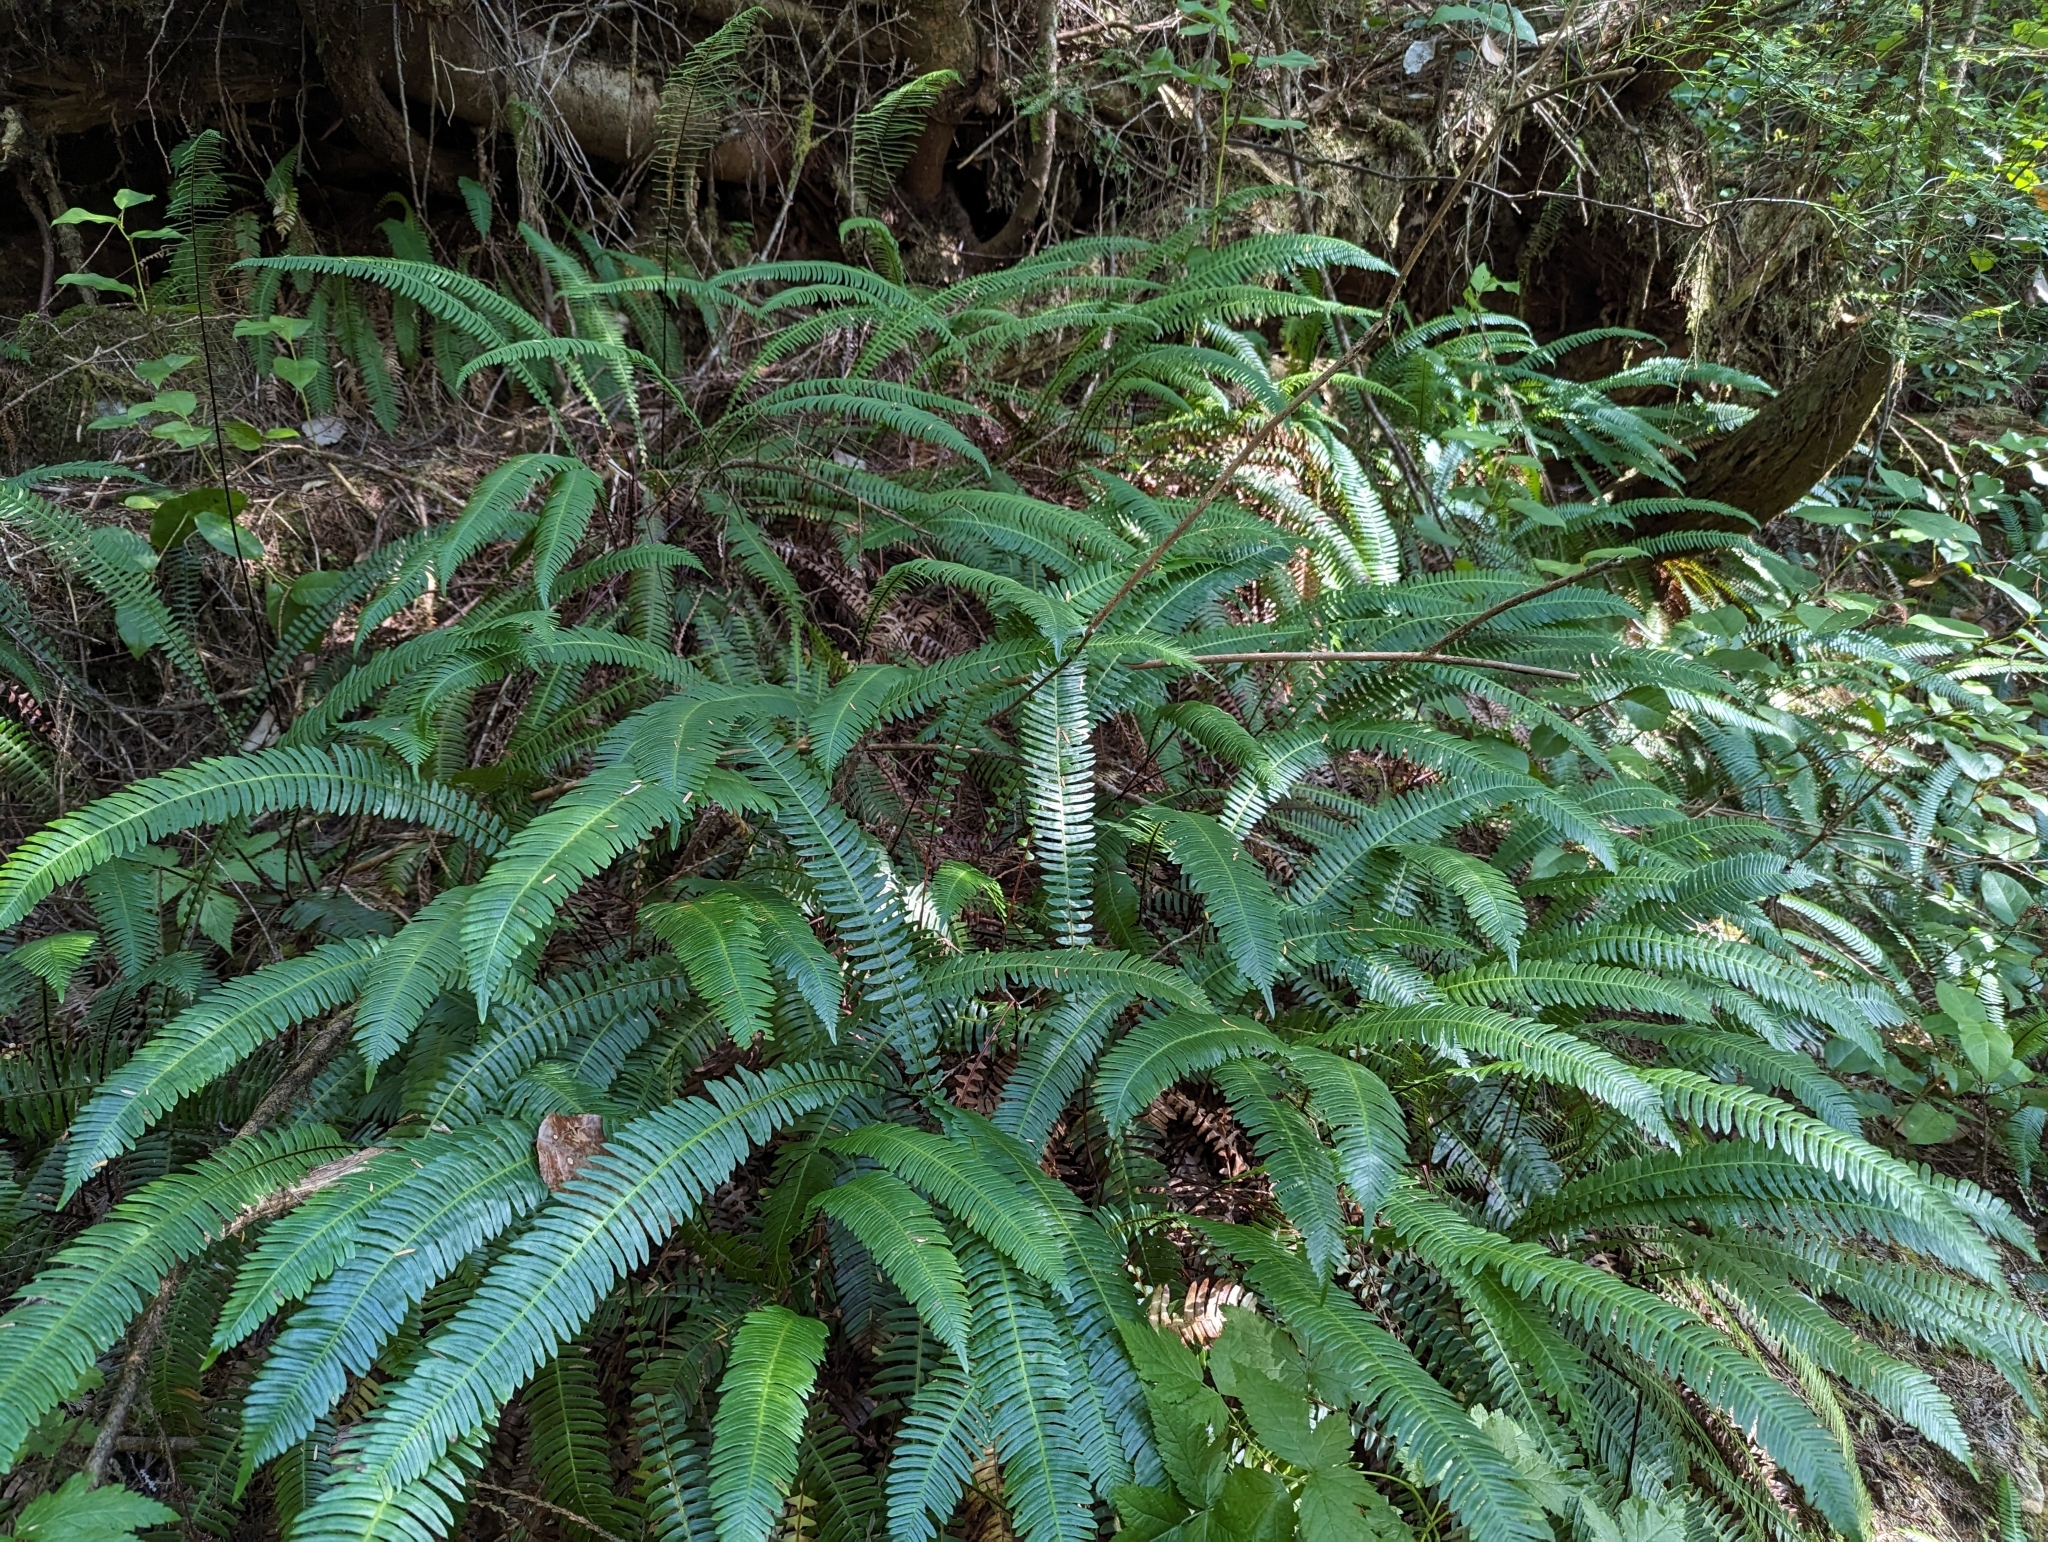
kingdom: Plantae
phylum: Tracheophyta
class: Polypodiopsida
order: Polypodiales
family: Blechnaceae
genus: Struthiopteris
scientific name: Struthiopteris spicant
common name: Deer fern
